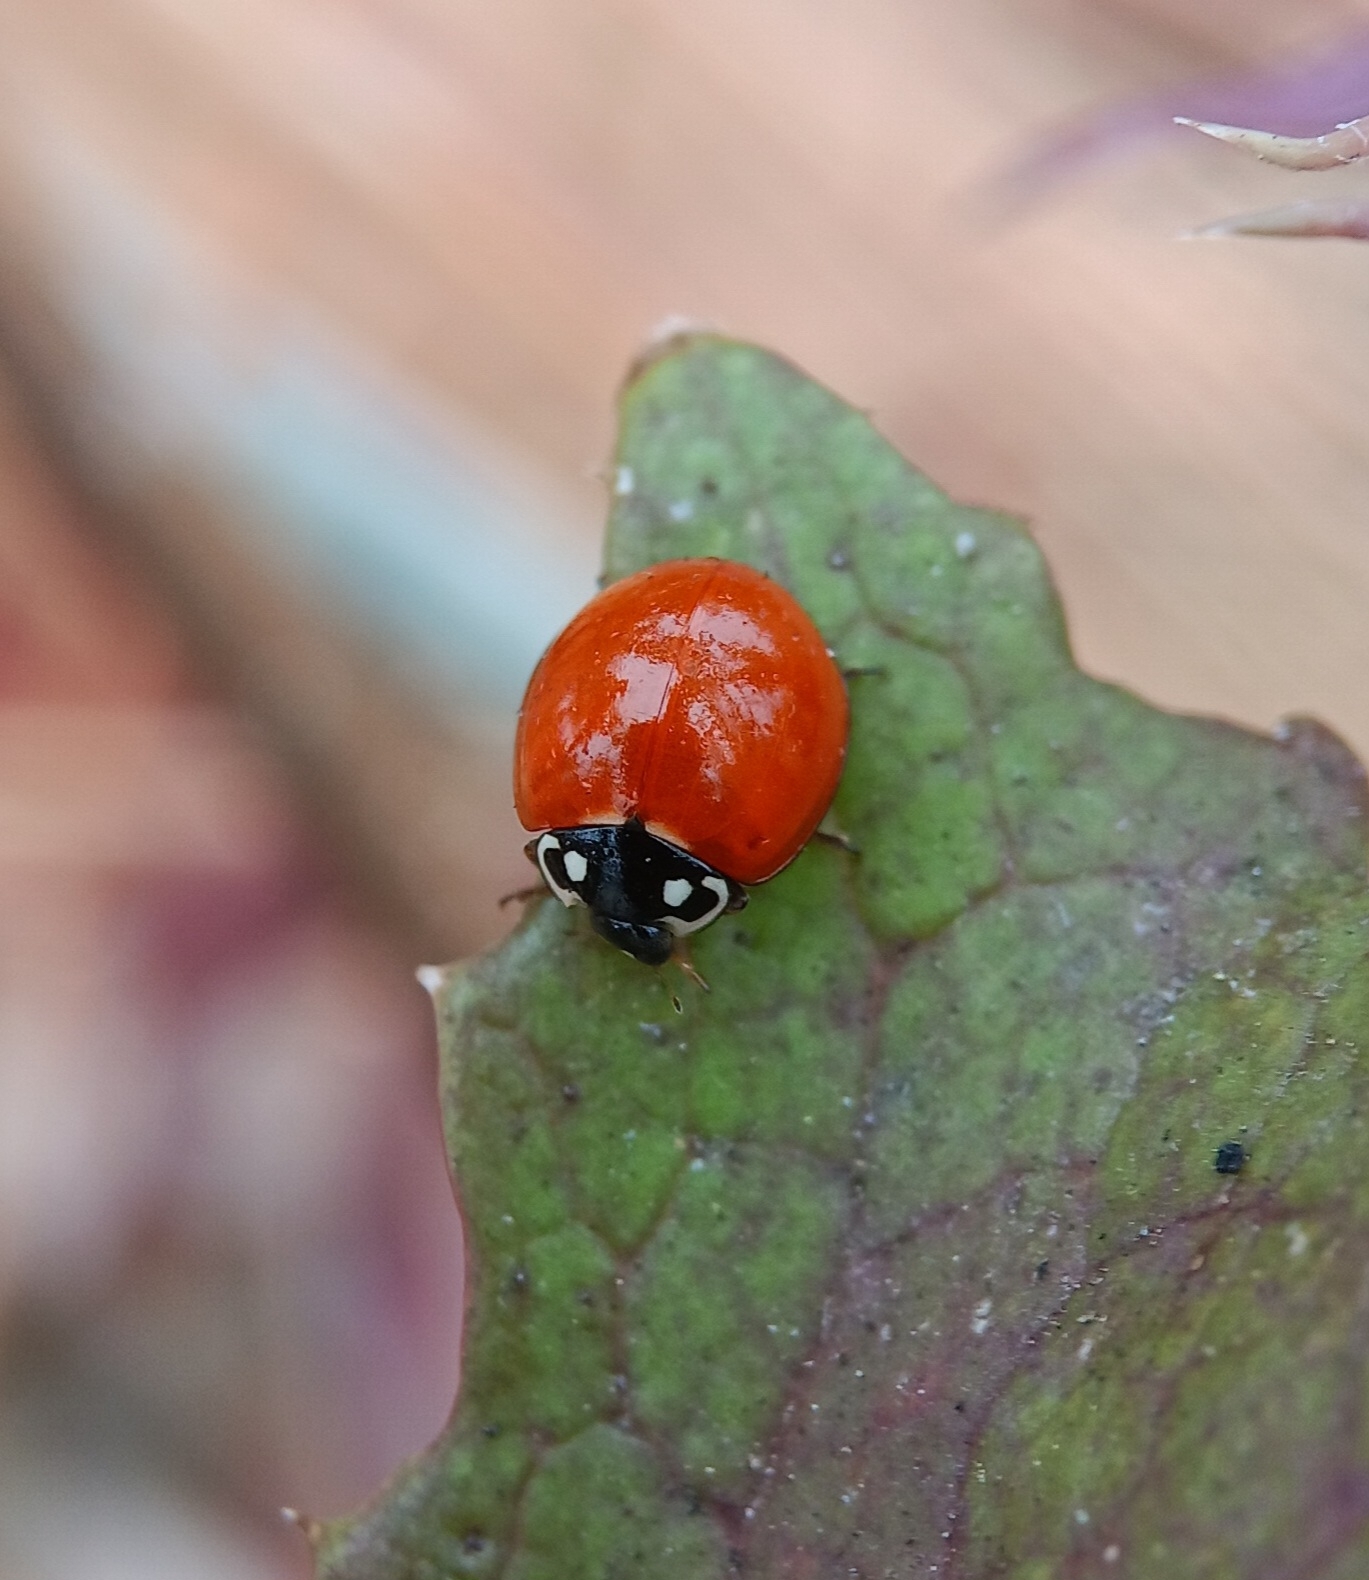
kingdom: Animalia
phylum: Arthropoda
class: Insecta
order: Coleoptera
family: Coccinellidae
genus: Cycloneda
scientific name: Cycloneda sanguinea
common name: Ladybird beetle
